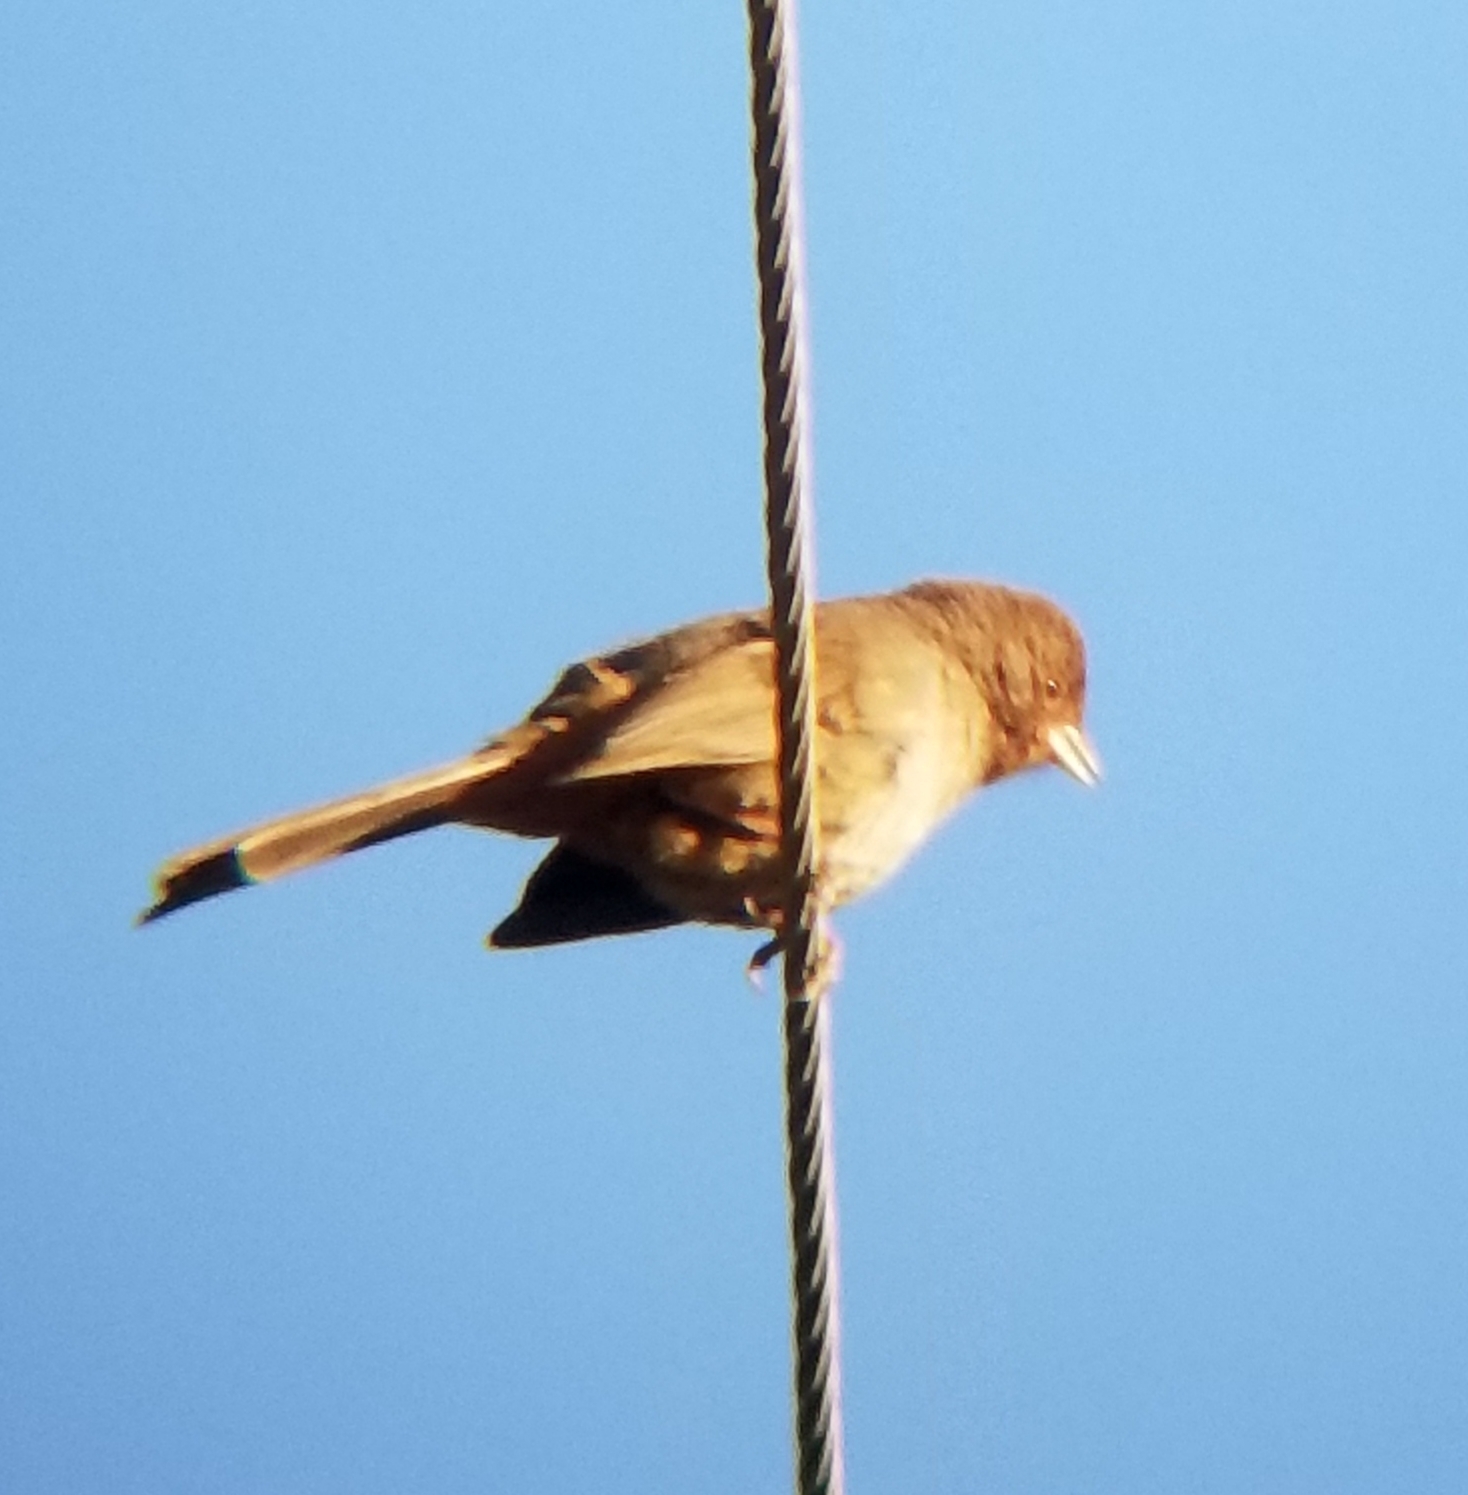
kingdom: Animalia
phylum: Chordata
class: Aves
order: Passeriformes
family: Passerellidae
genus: Melozone
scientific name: Melozone crissalis
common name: California towhee
